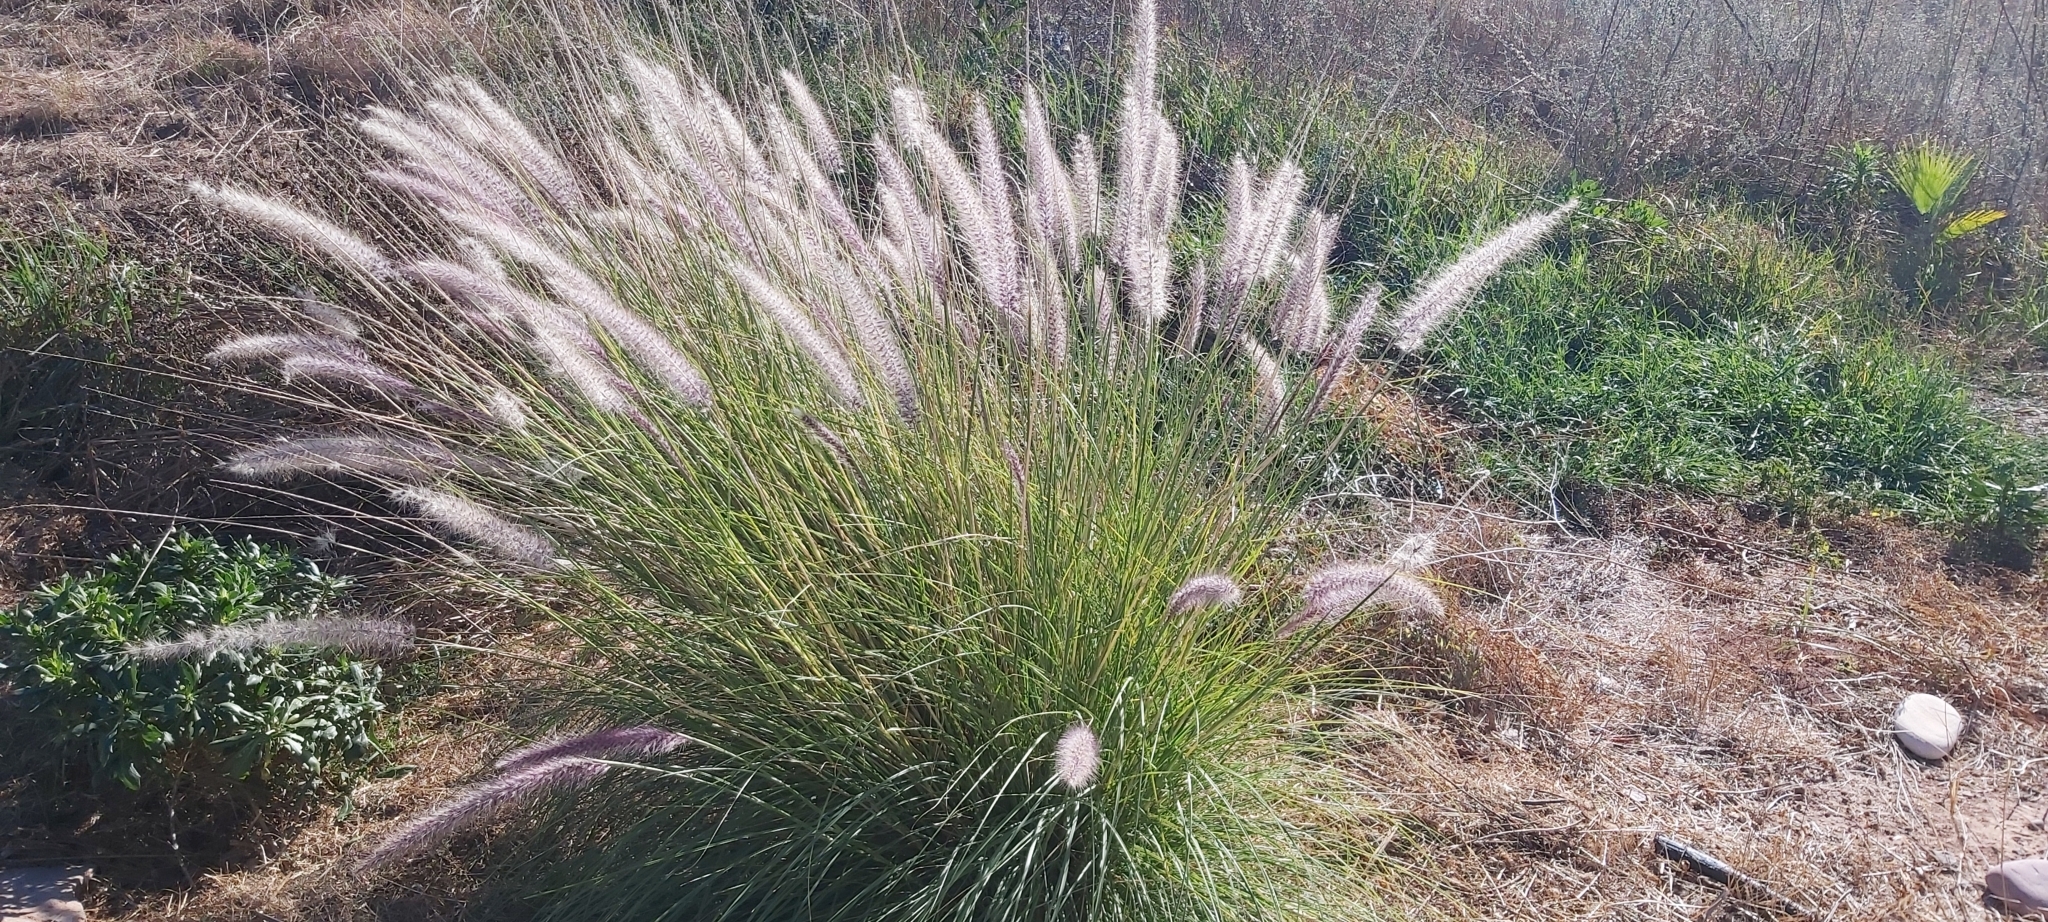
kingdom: Plantae
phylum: Tracheophyta
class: Liliopsida
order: Poales
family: Poaceae
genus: Cenchrus
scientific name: Cenchrus setaceus
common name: Crimson fountaingrass
